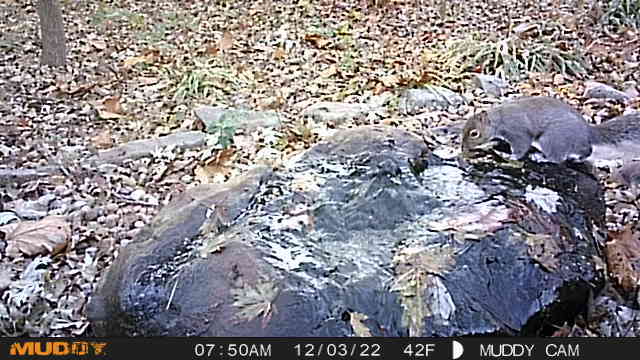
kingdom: Animalia
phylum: Chordata
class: Mammalia
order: Rodentia
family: Sciuridae
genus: Sciurus
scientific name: Sciurus carolinensis
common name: Eastern gray squirrel
